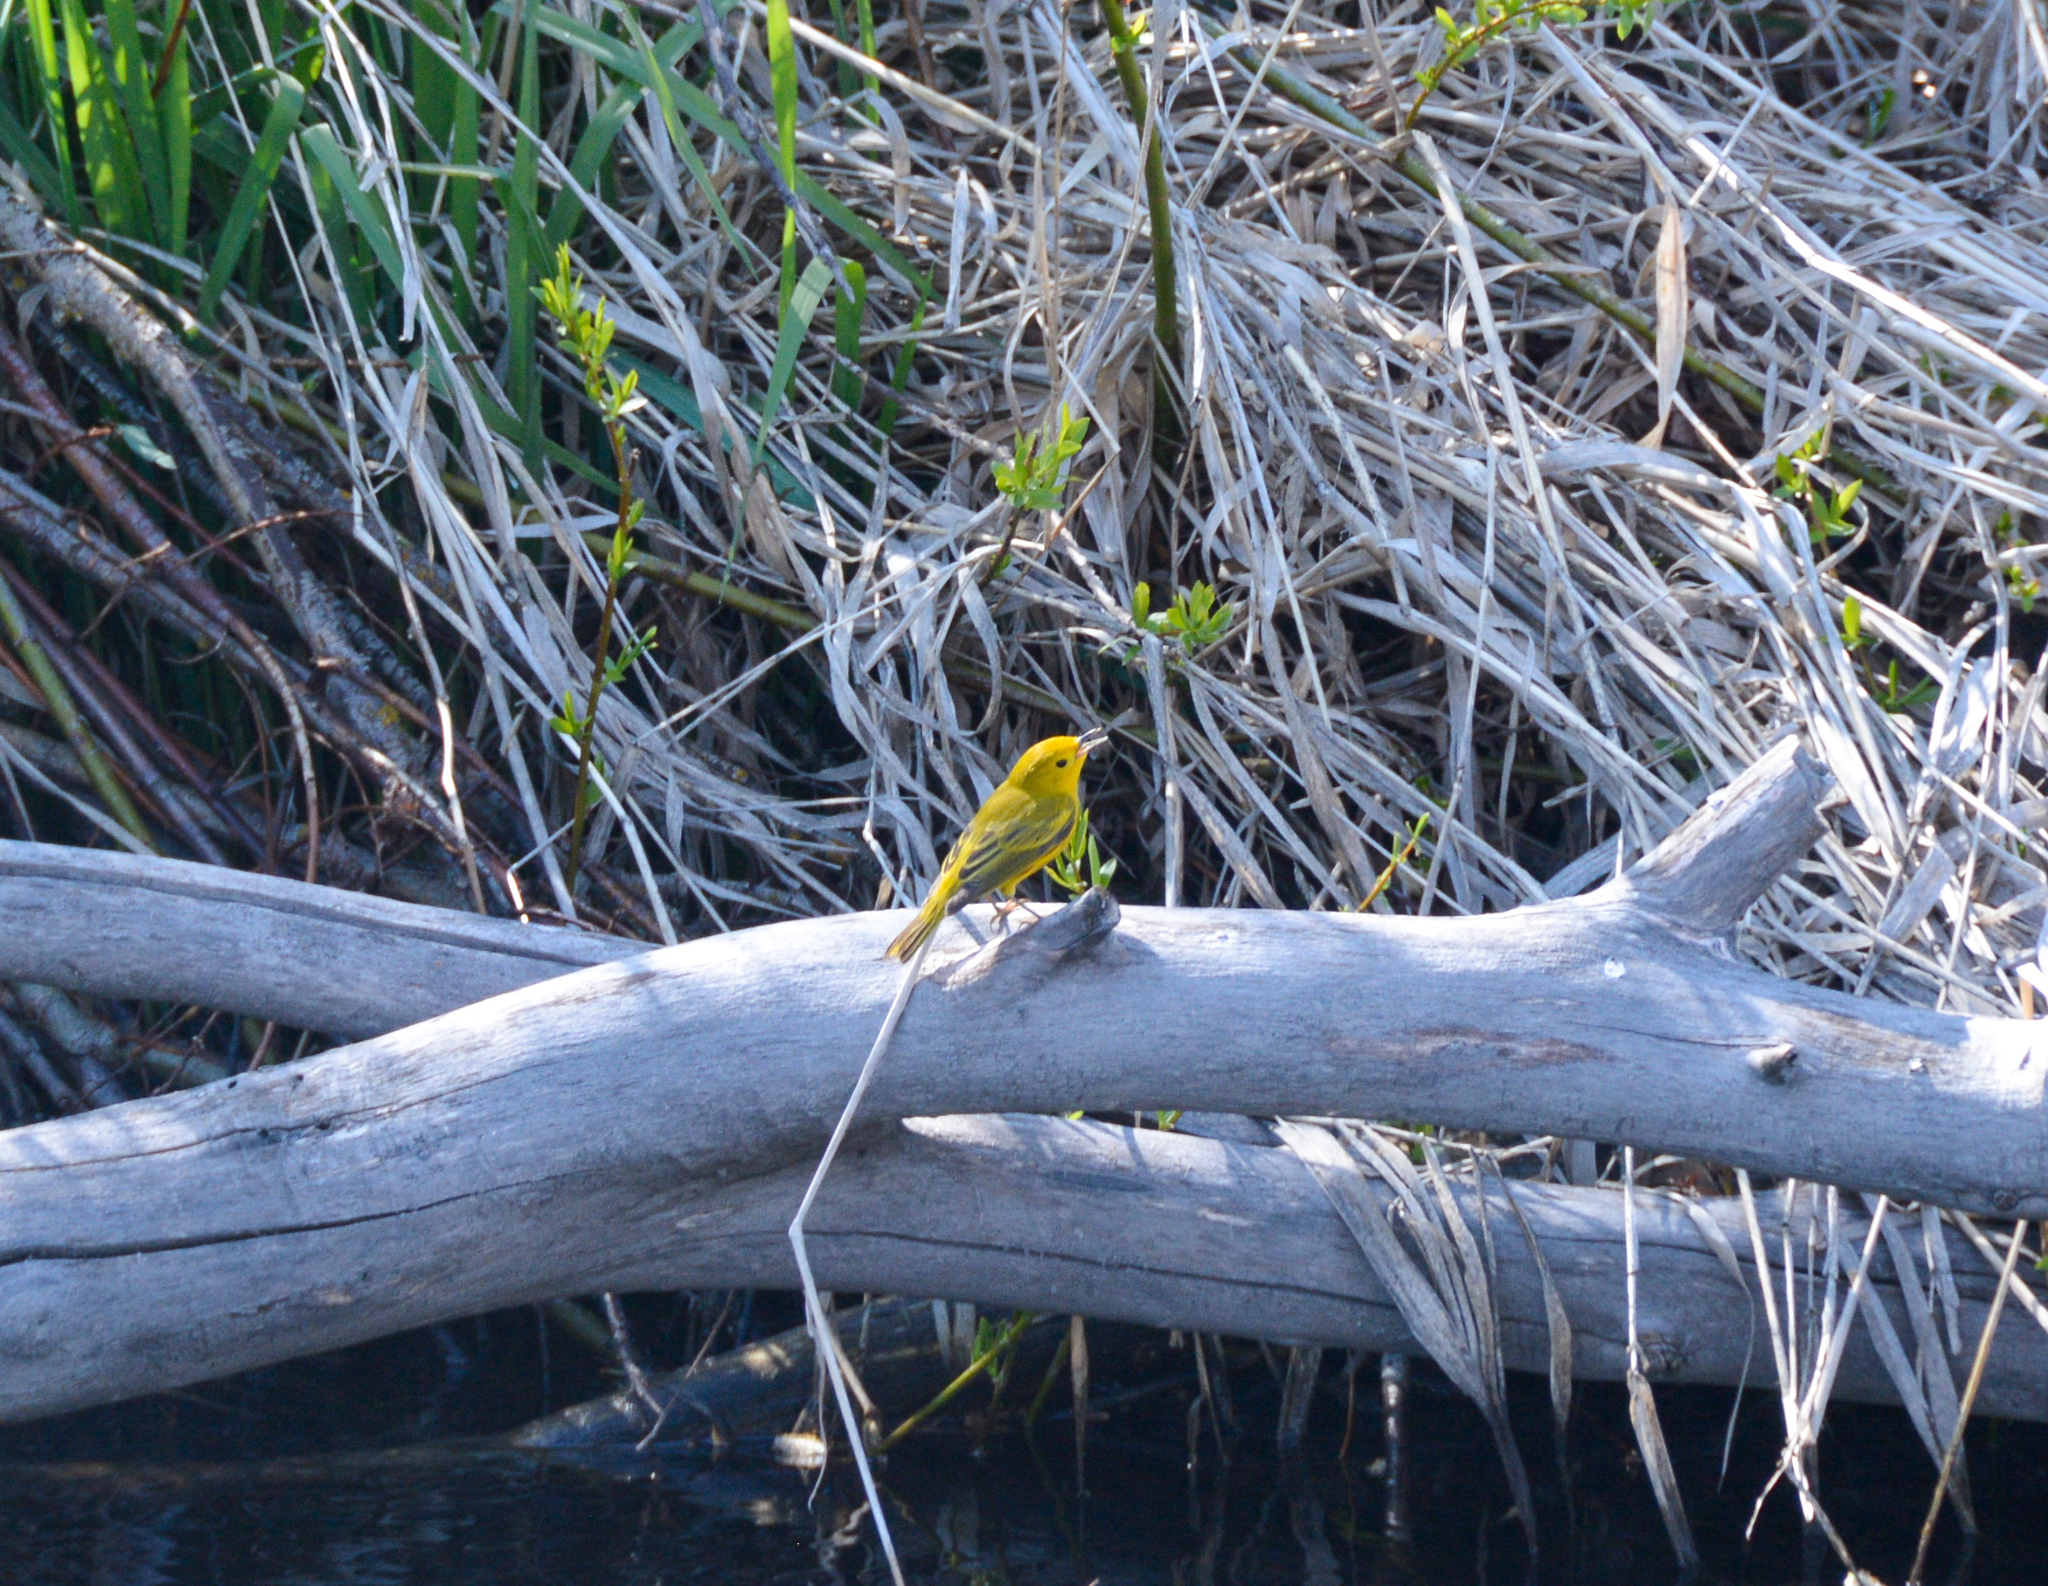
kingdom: Animalia
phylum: Chordata
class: Aves
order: Passeriformes
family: Parulidae
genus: Setophaga
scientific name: Setophaga petechia
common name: Yellow warbler
